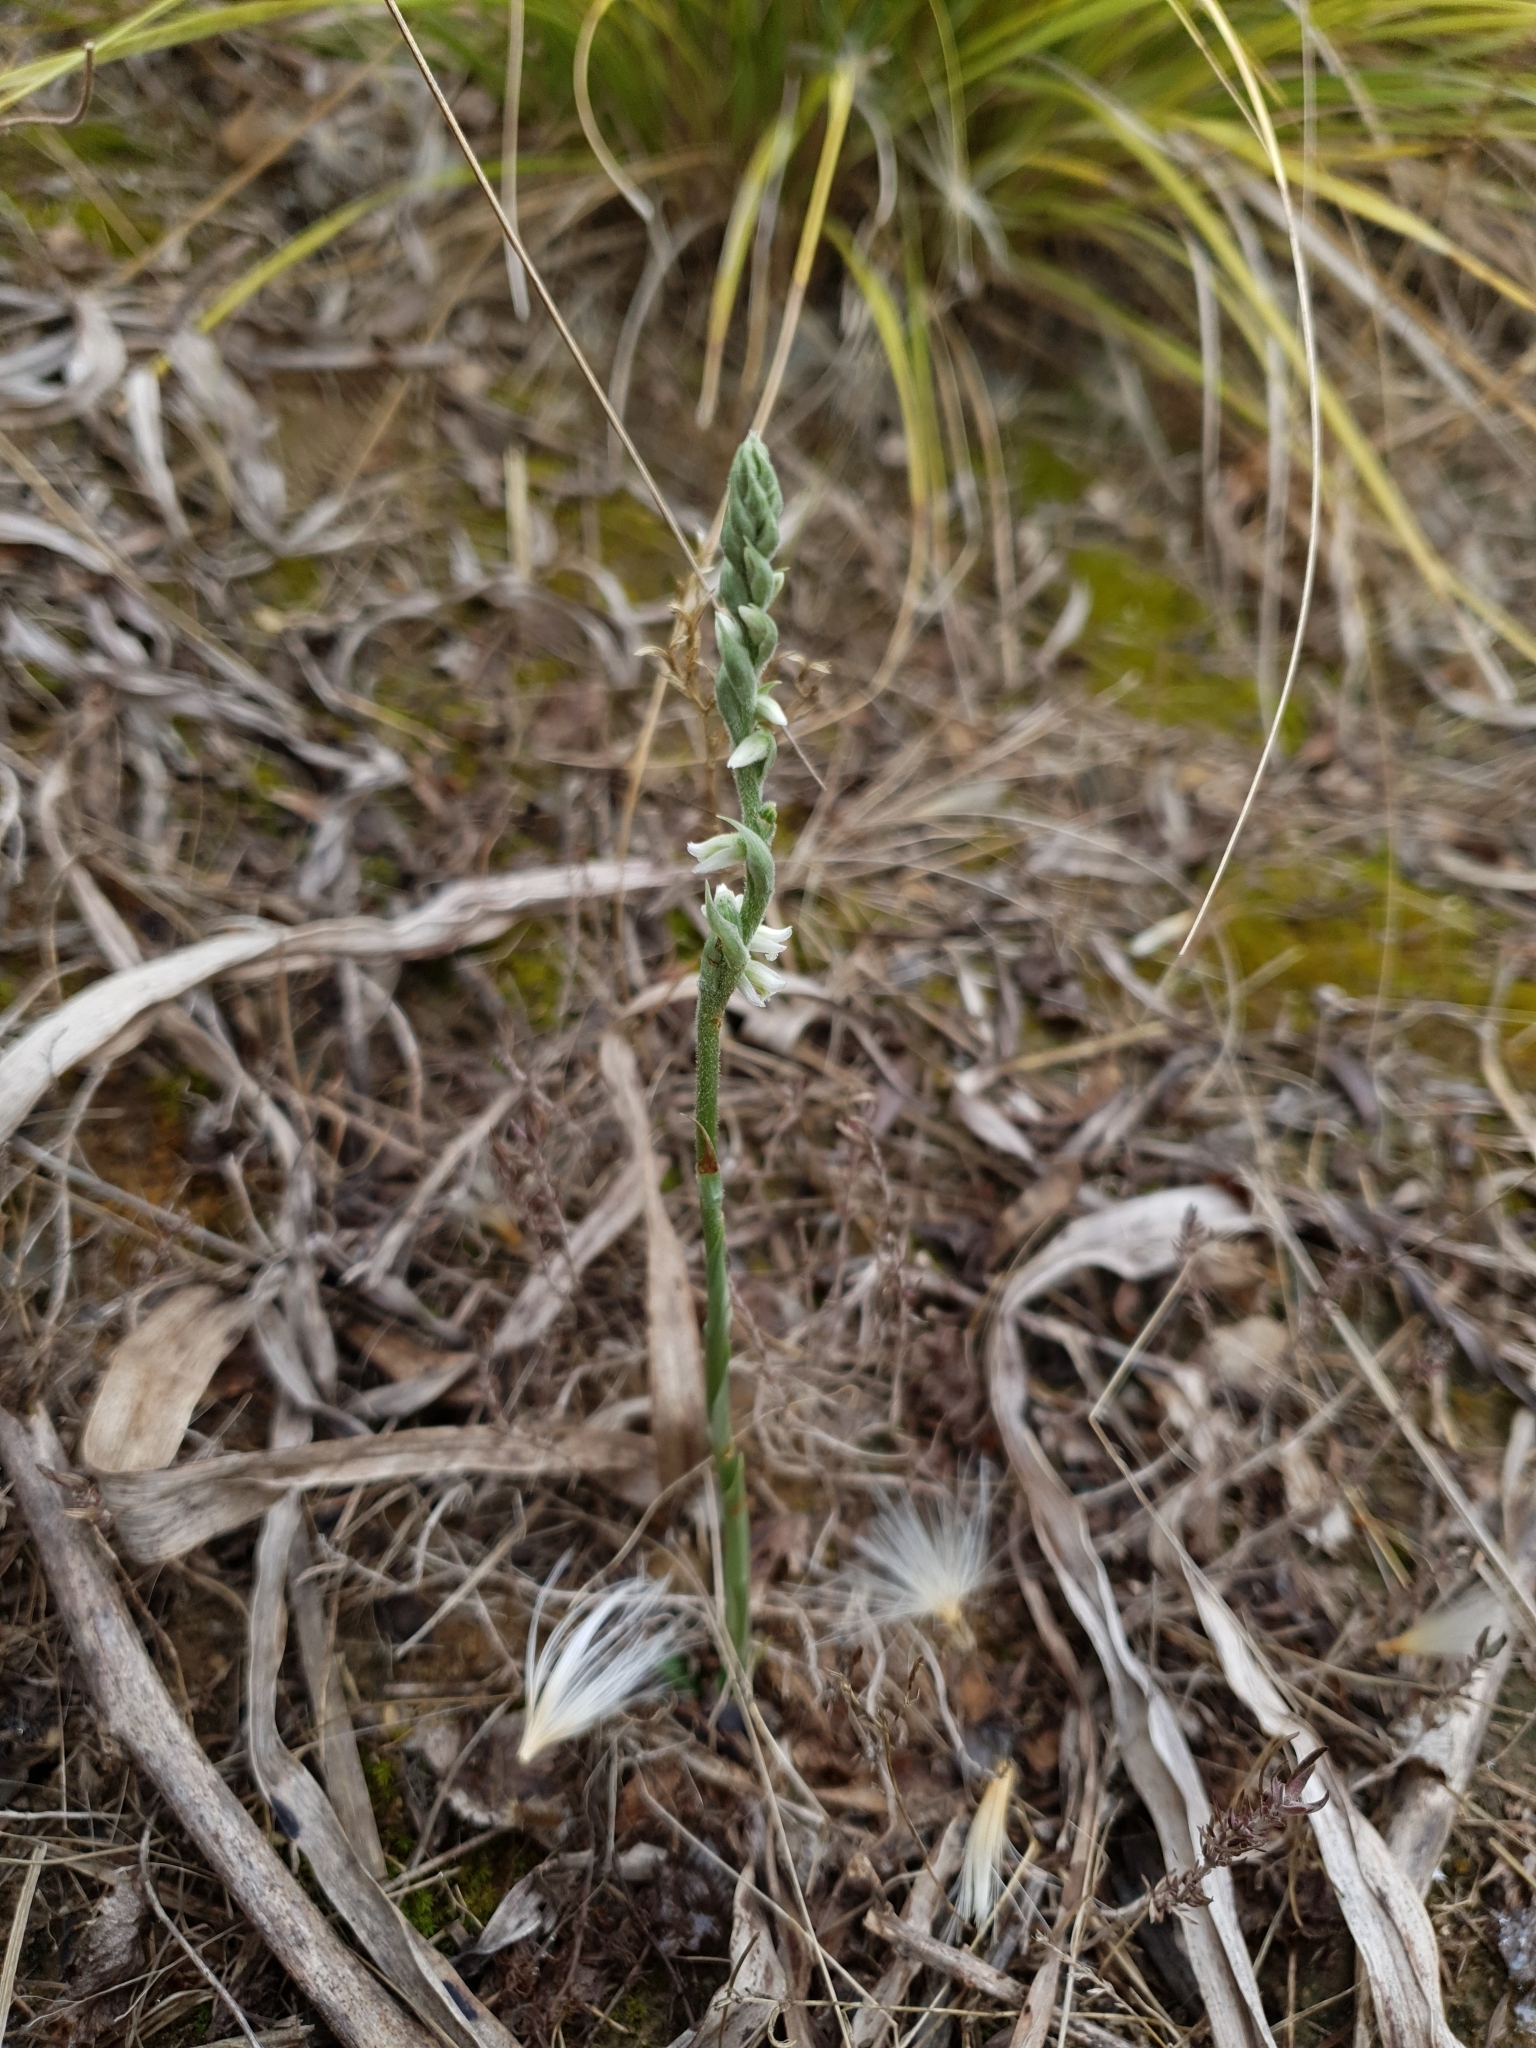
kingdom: Plantae
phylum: Tracheophyta
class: Liliopsida
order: Asparagales
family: Orchidaceae
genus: Spiranthes
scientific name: Spiranthes spiralis
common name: Autumn lady's-tresses
